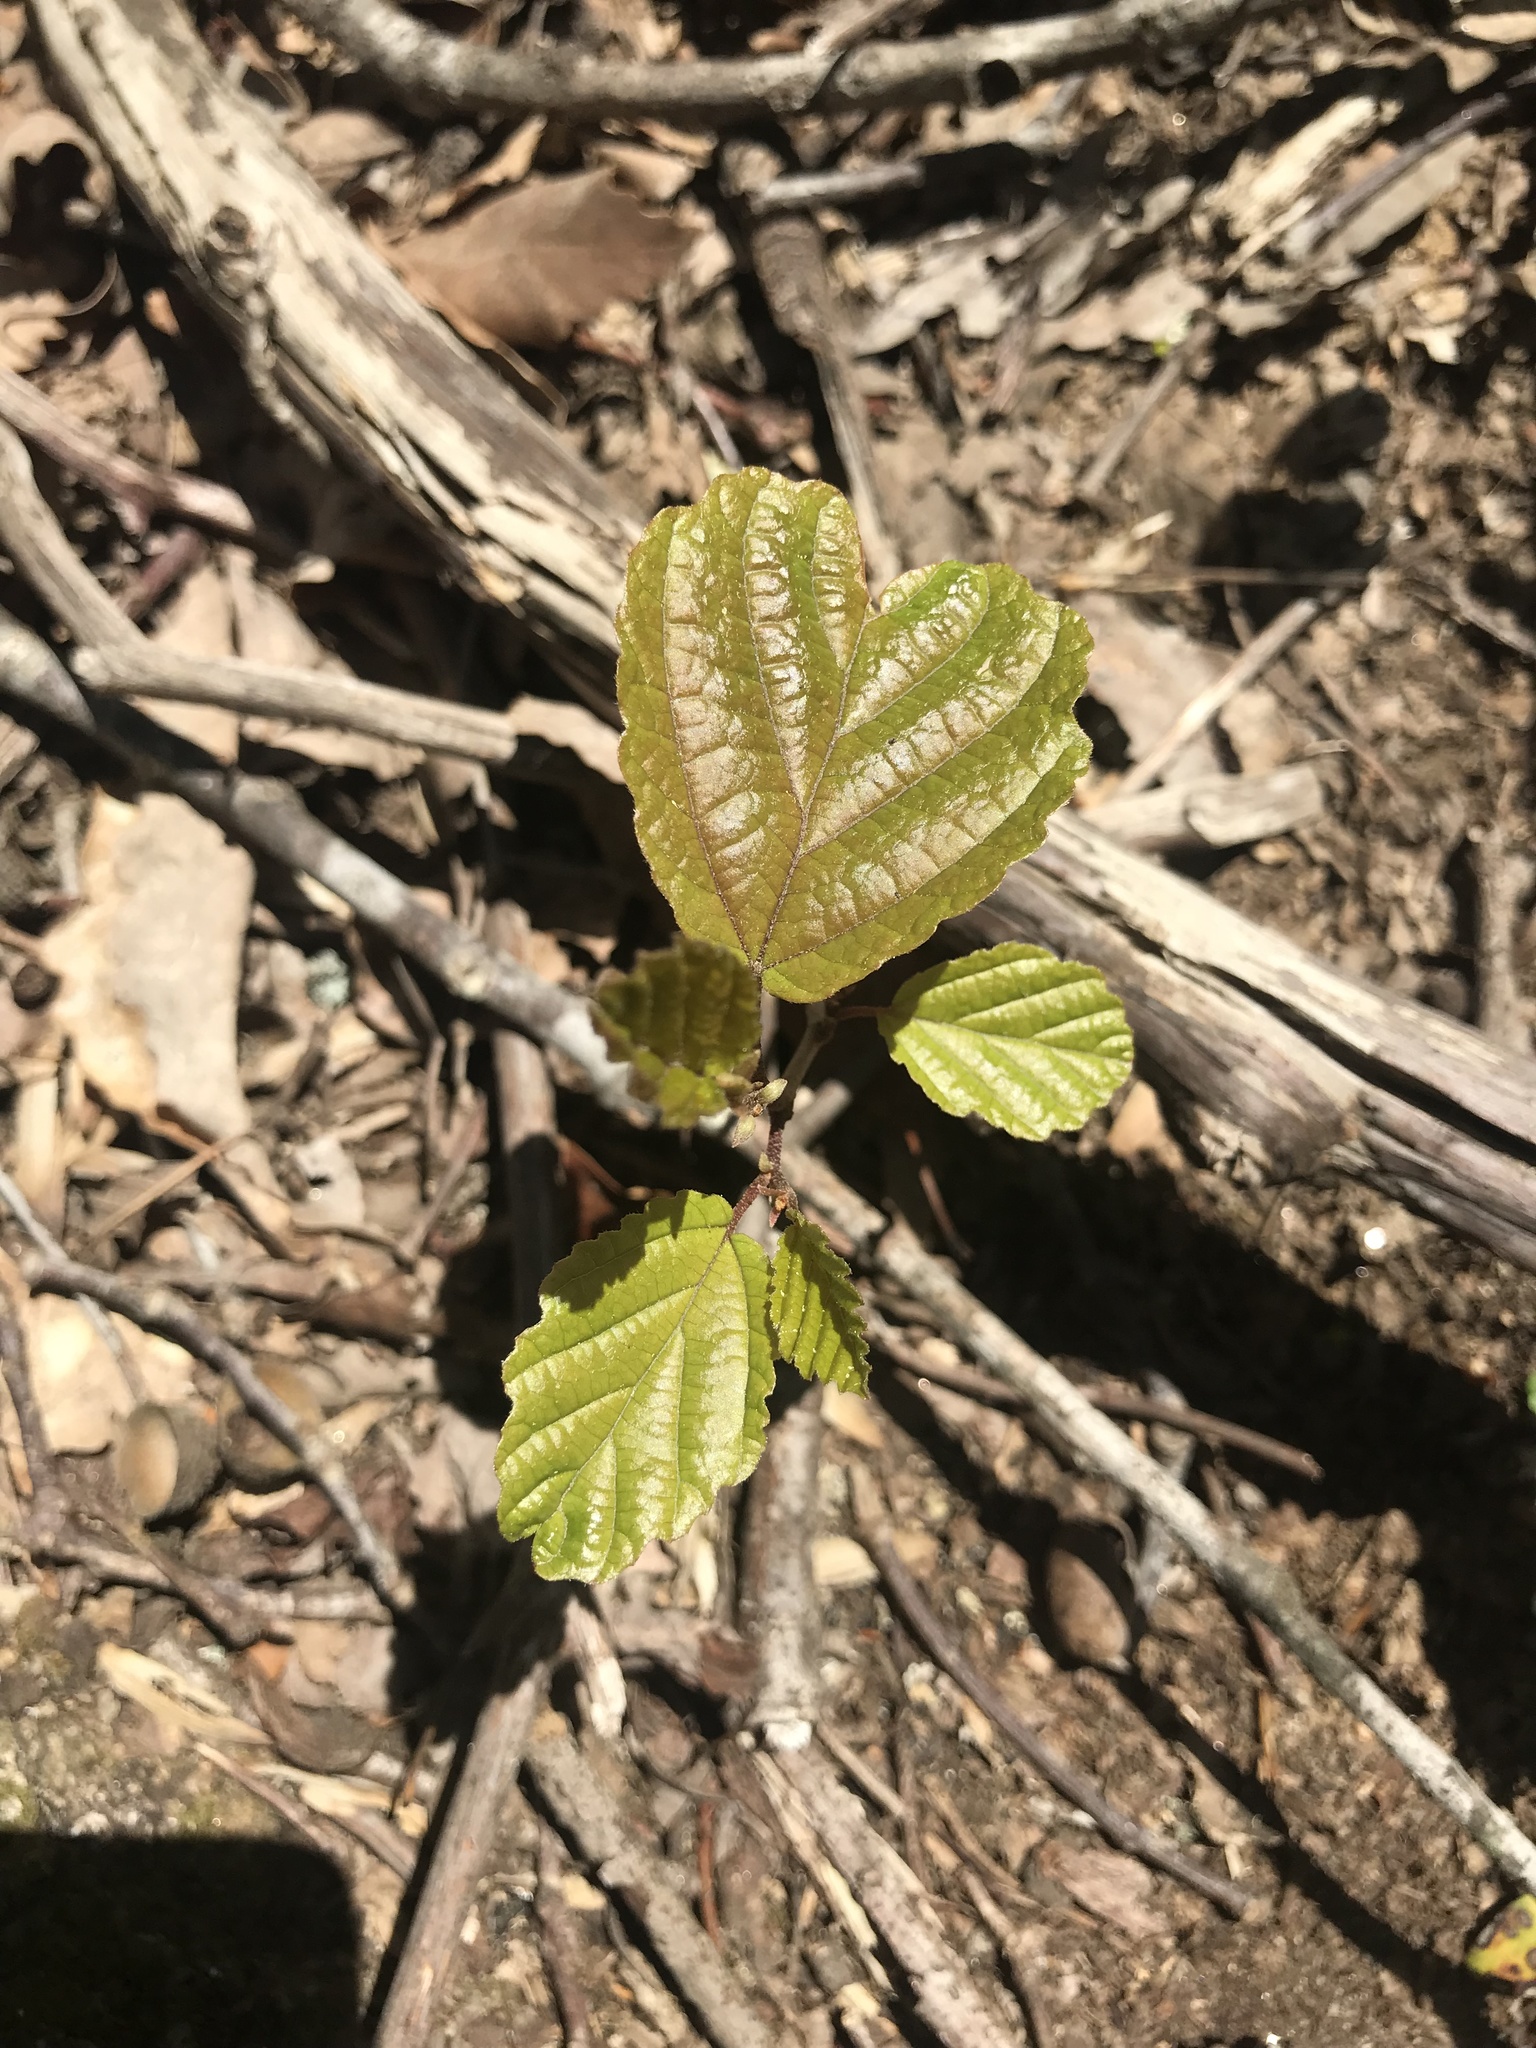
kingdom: Plantae
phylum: Tracheophyta
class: Magnoliopsida
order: Saxifragales
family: Hamamelidaceae
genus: Hamamelis
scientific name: Hamamelis virginiana
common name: Witch-hazel
